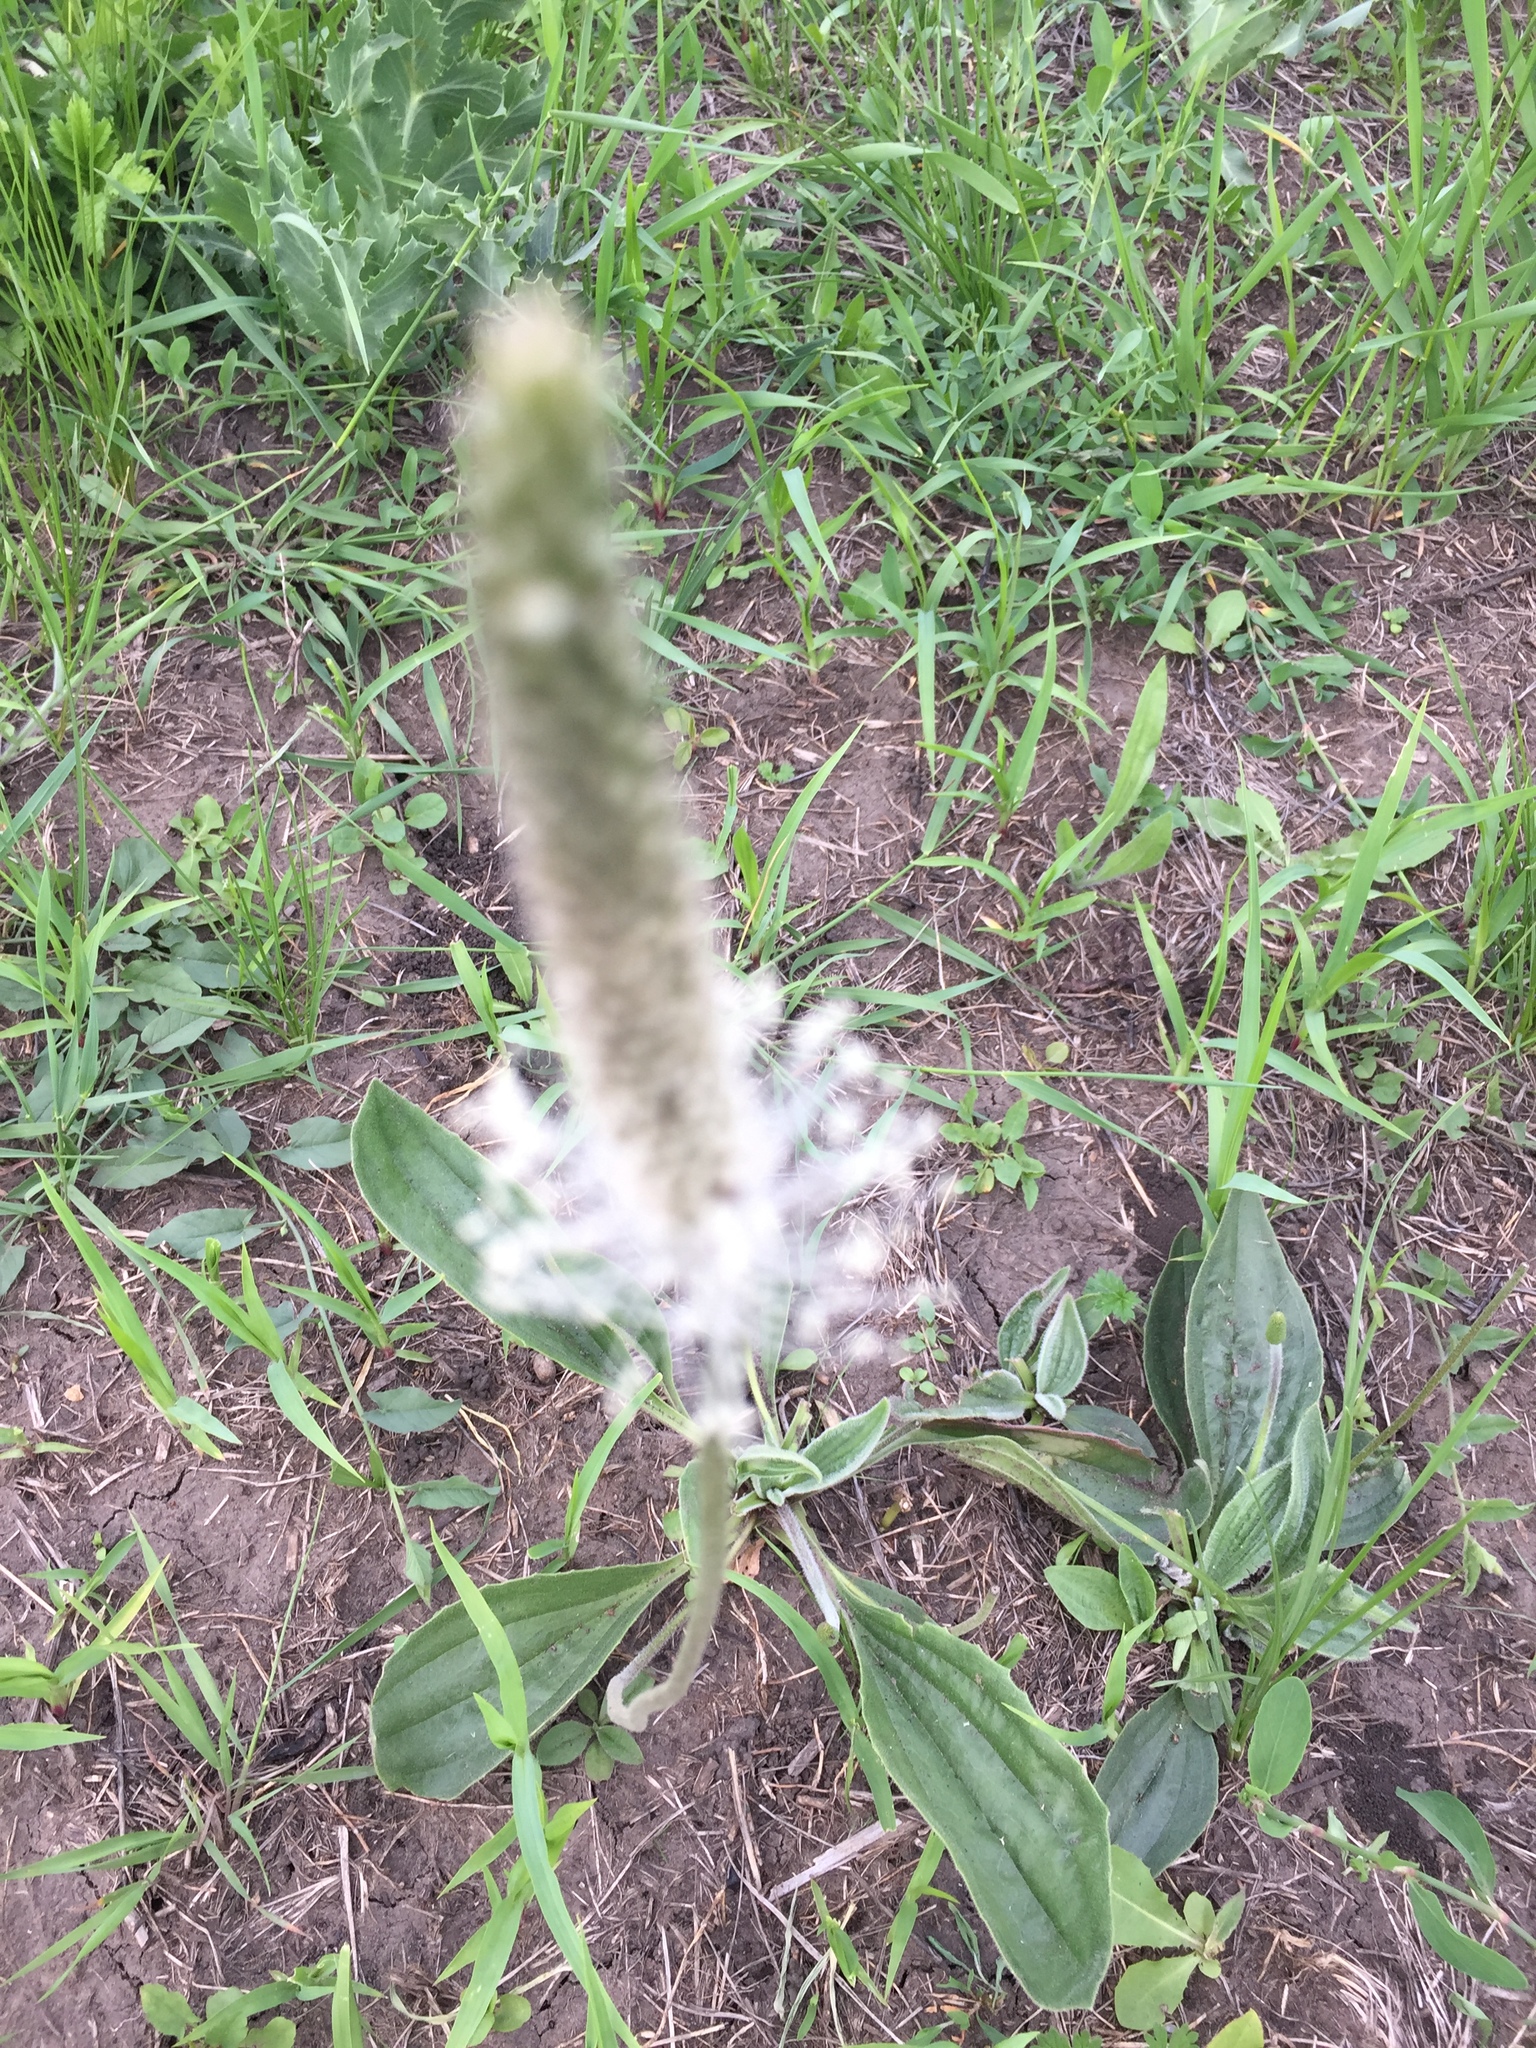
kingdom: Plantae
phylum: Tracheophyta
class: Magnoliopsida
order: Lamiales
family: Plantaginaceae
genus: Plantago
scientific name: Plantago media
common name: Hoary plantain
